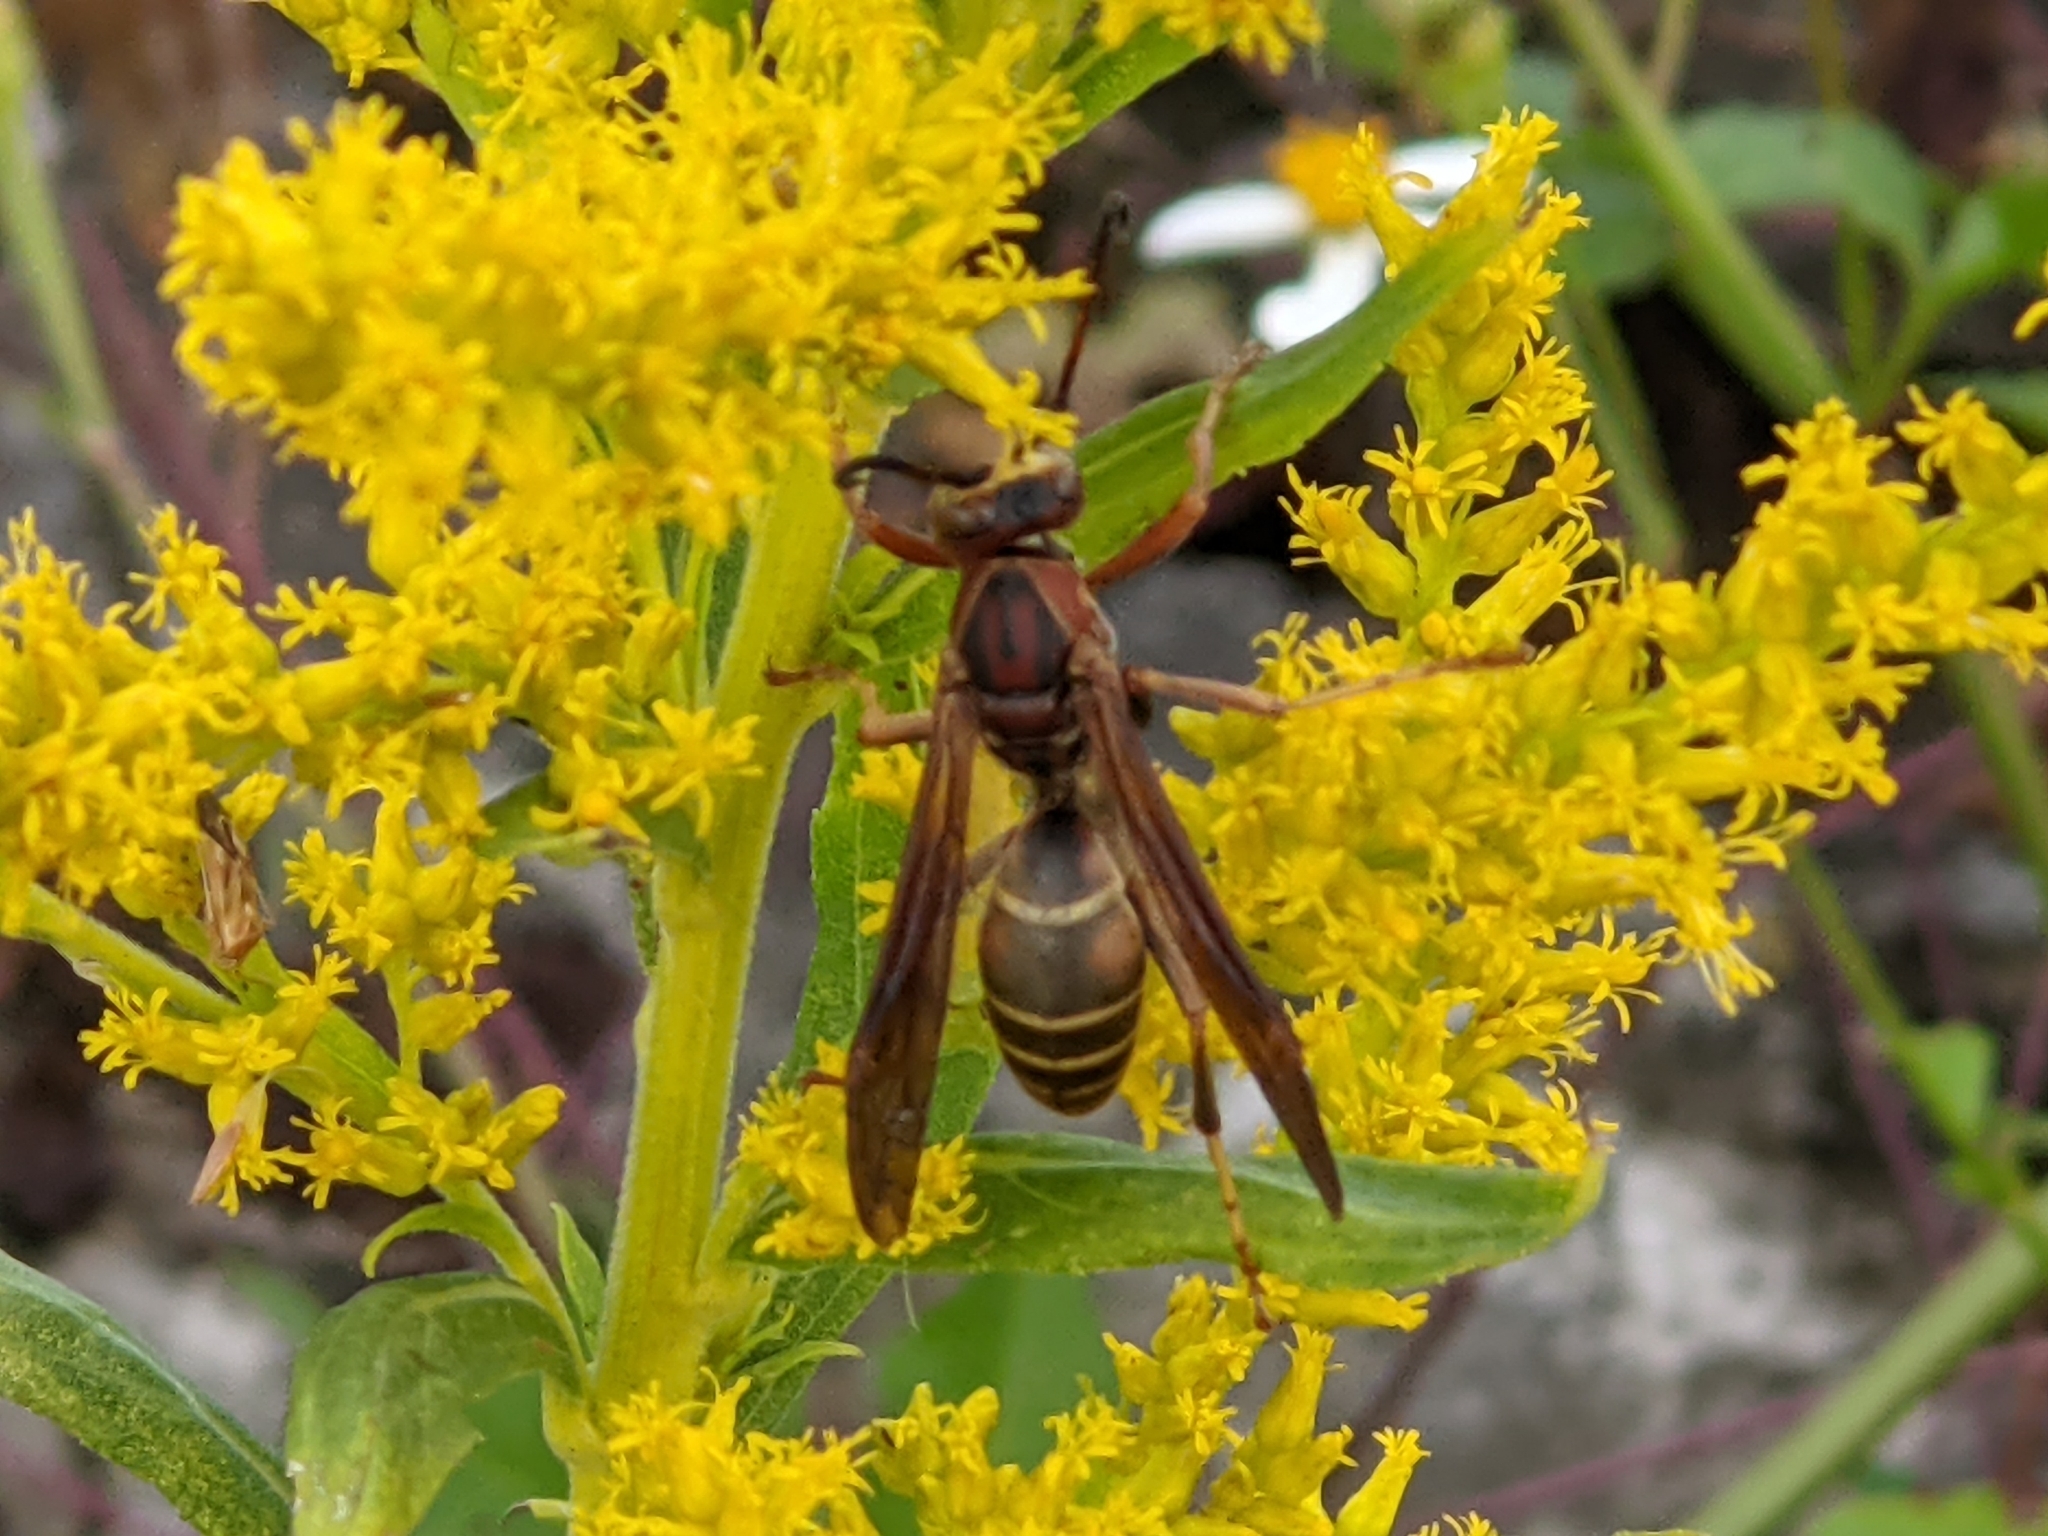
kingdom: Animalia
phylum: Arthropoda
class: Insecta
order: Hymenoptera
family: Eumenidae
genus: Polistes
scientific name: Polistes fuscatus
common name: Dark paper wasp
